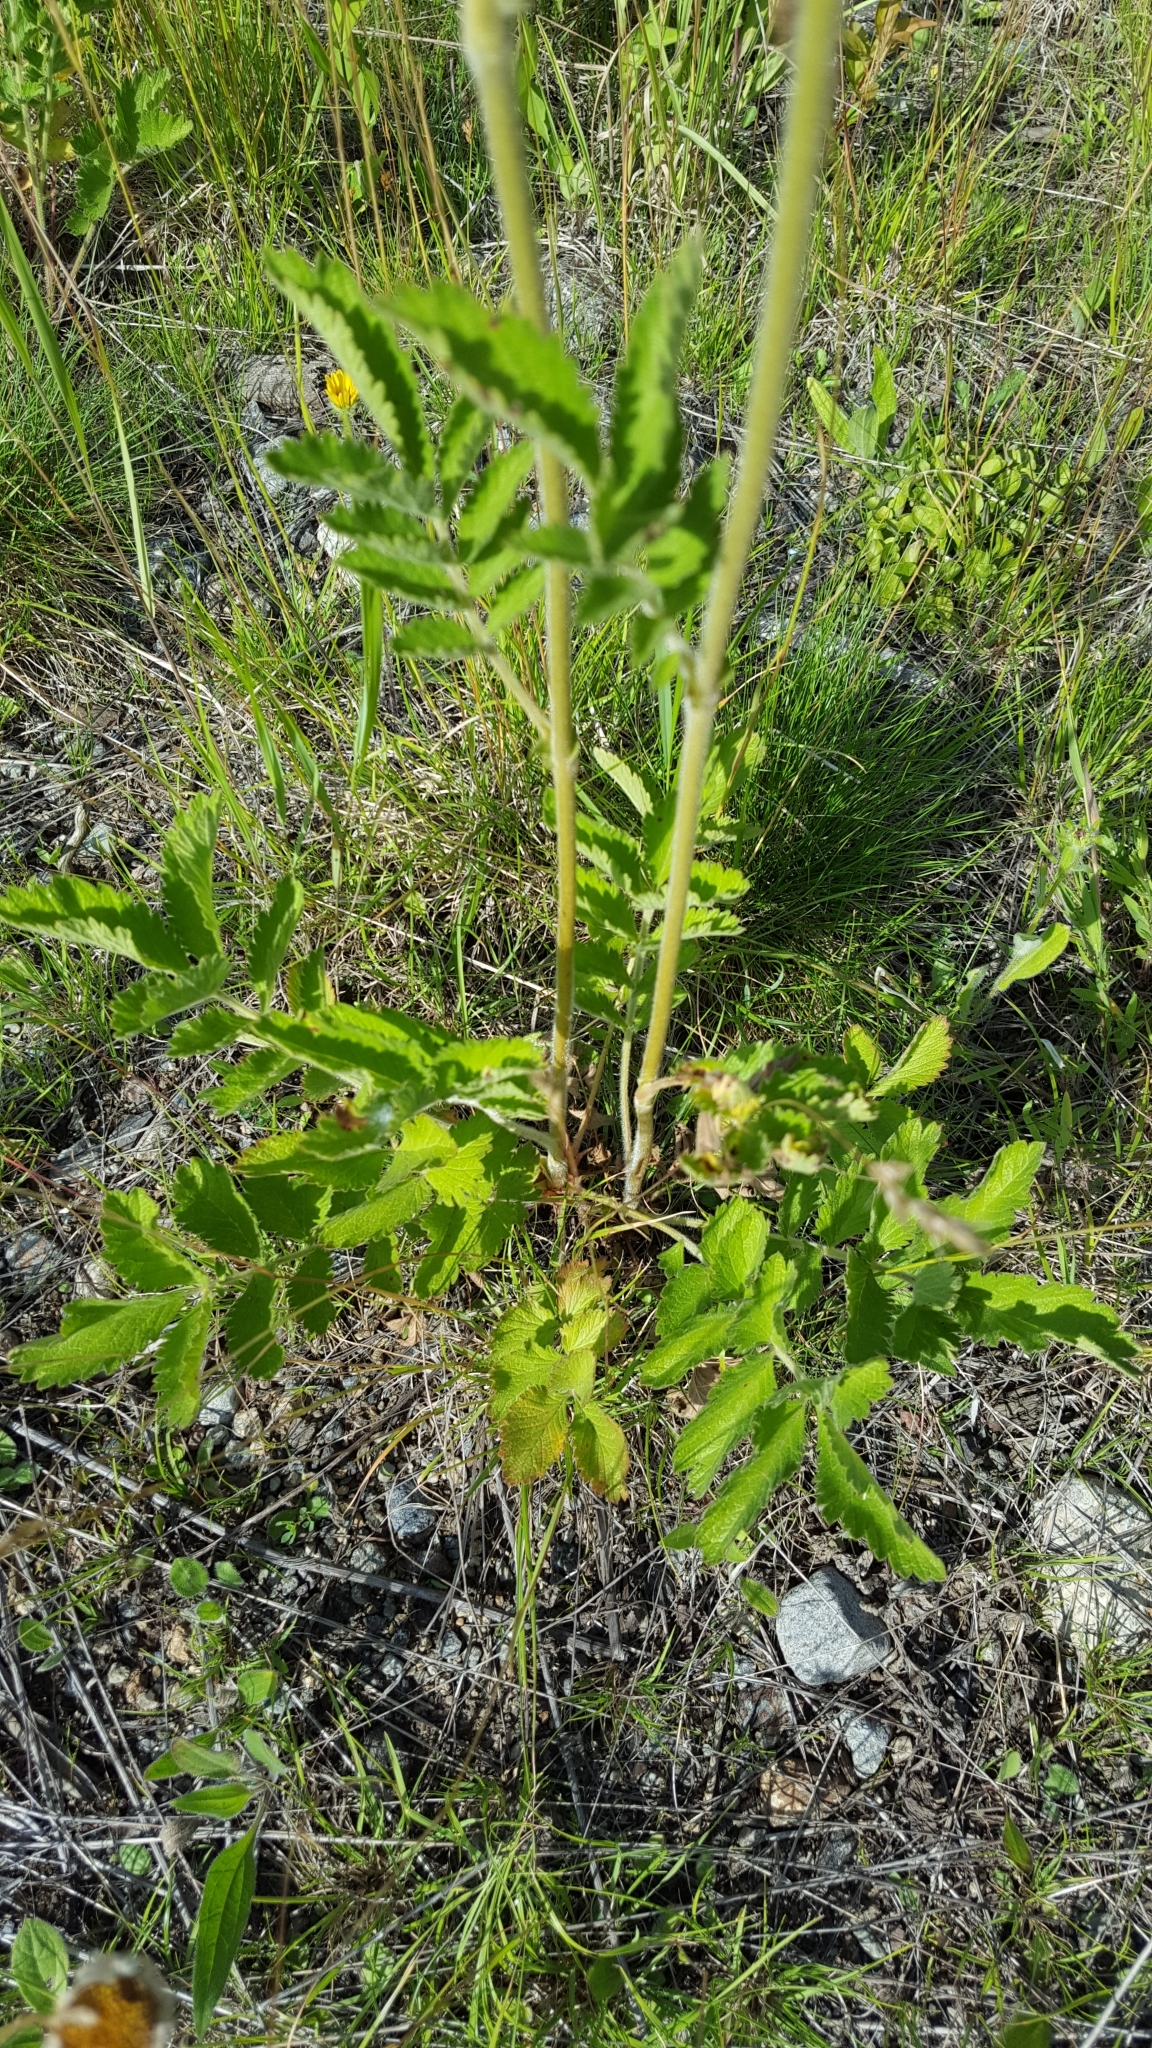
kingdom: Plantae
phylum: Tracheophyta
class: Magnoliopsida
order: Rosales
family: Rosaceae
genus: Drymocallis
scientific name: Drymocallis arguta
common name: Tall cinquefoil
